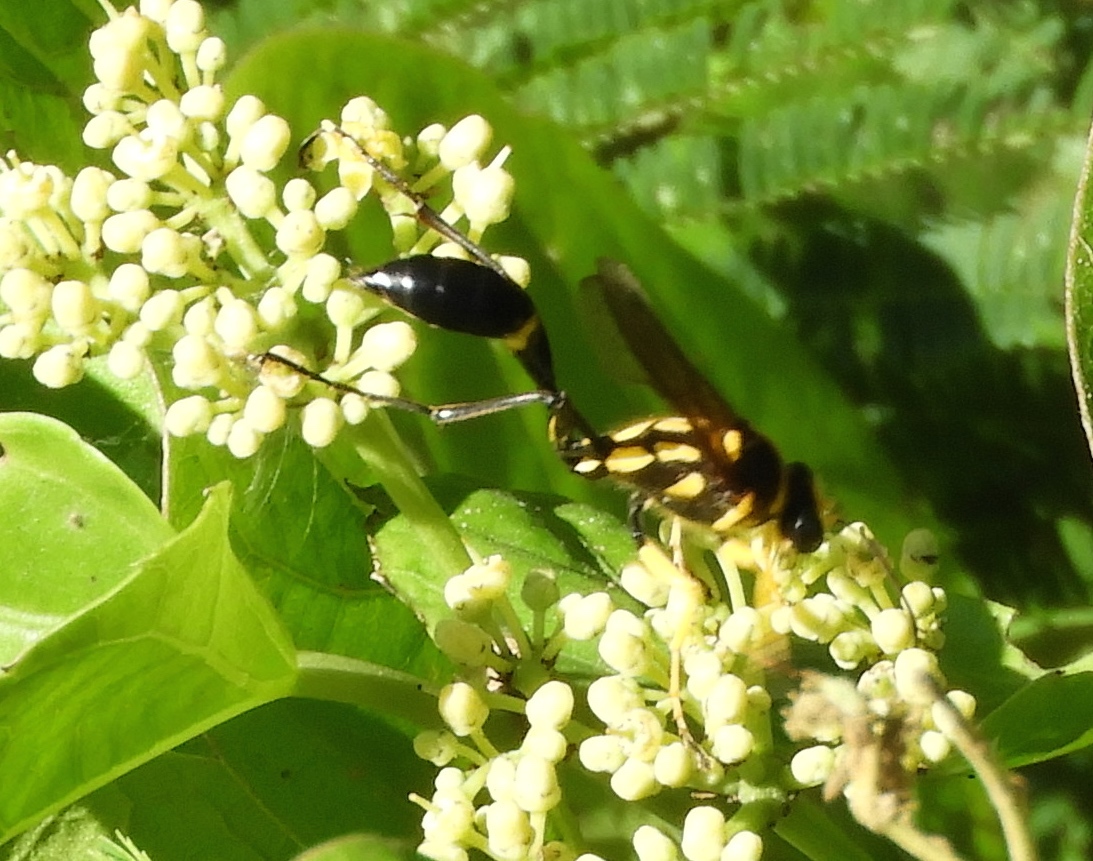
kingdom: Animalia
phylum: Arthropoda
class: Insecta
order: Hymenoptera
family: Sphecidae
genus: Sceliphron
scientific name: Sceliphron fistularium
